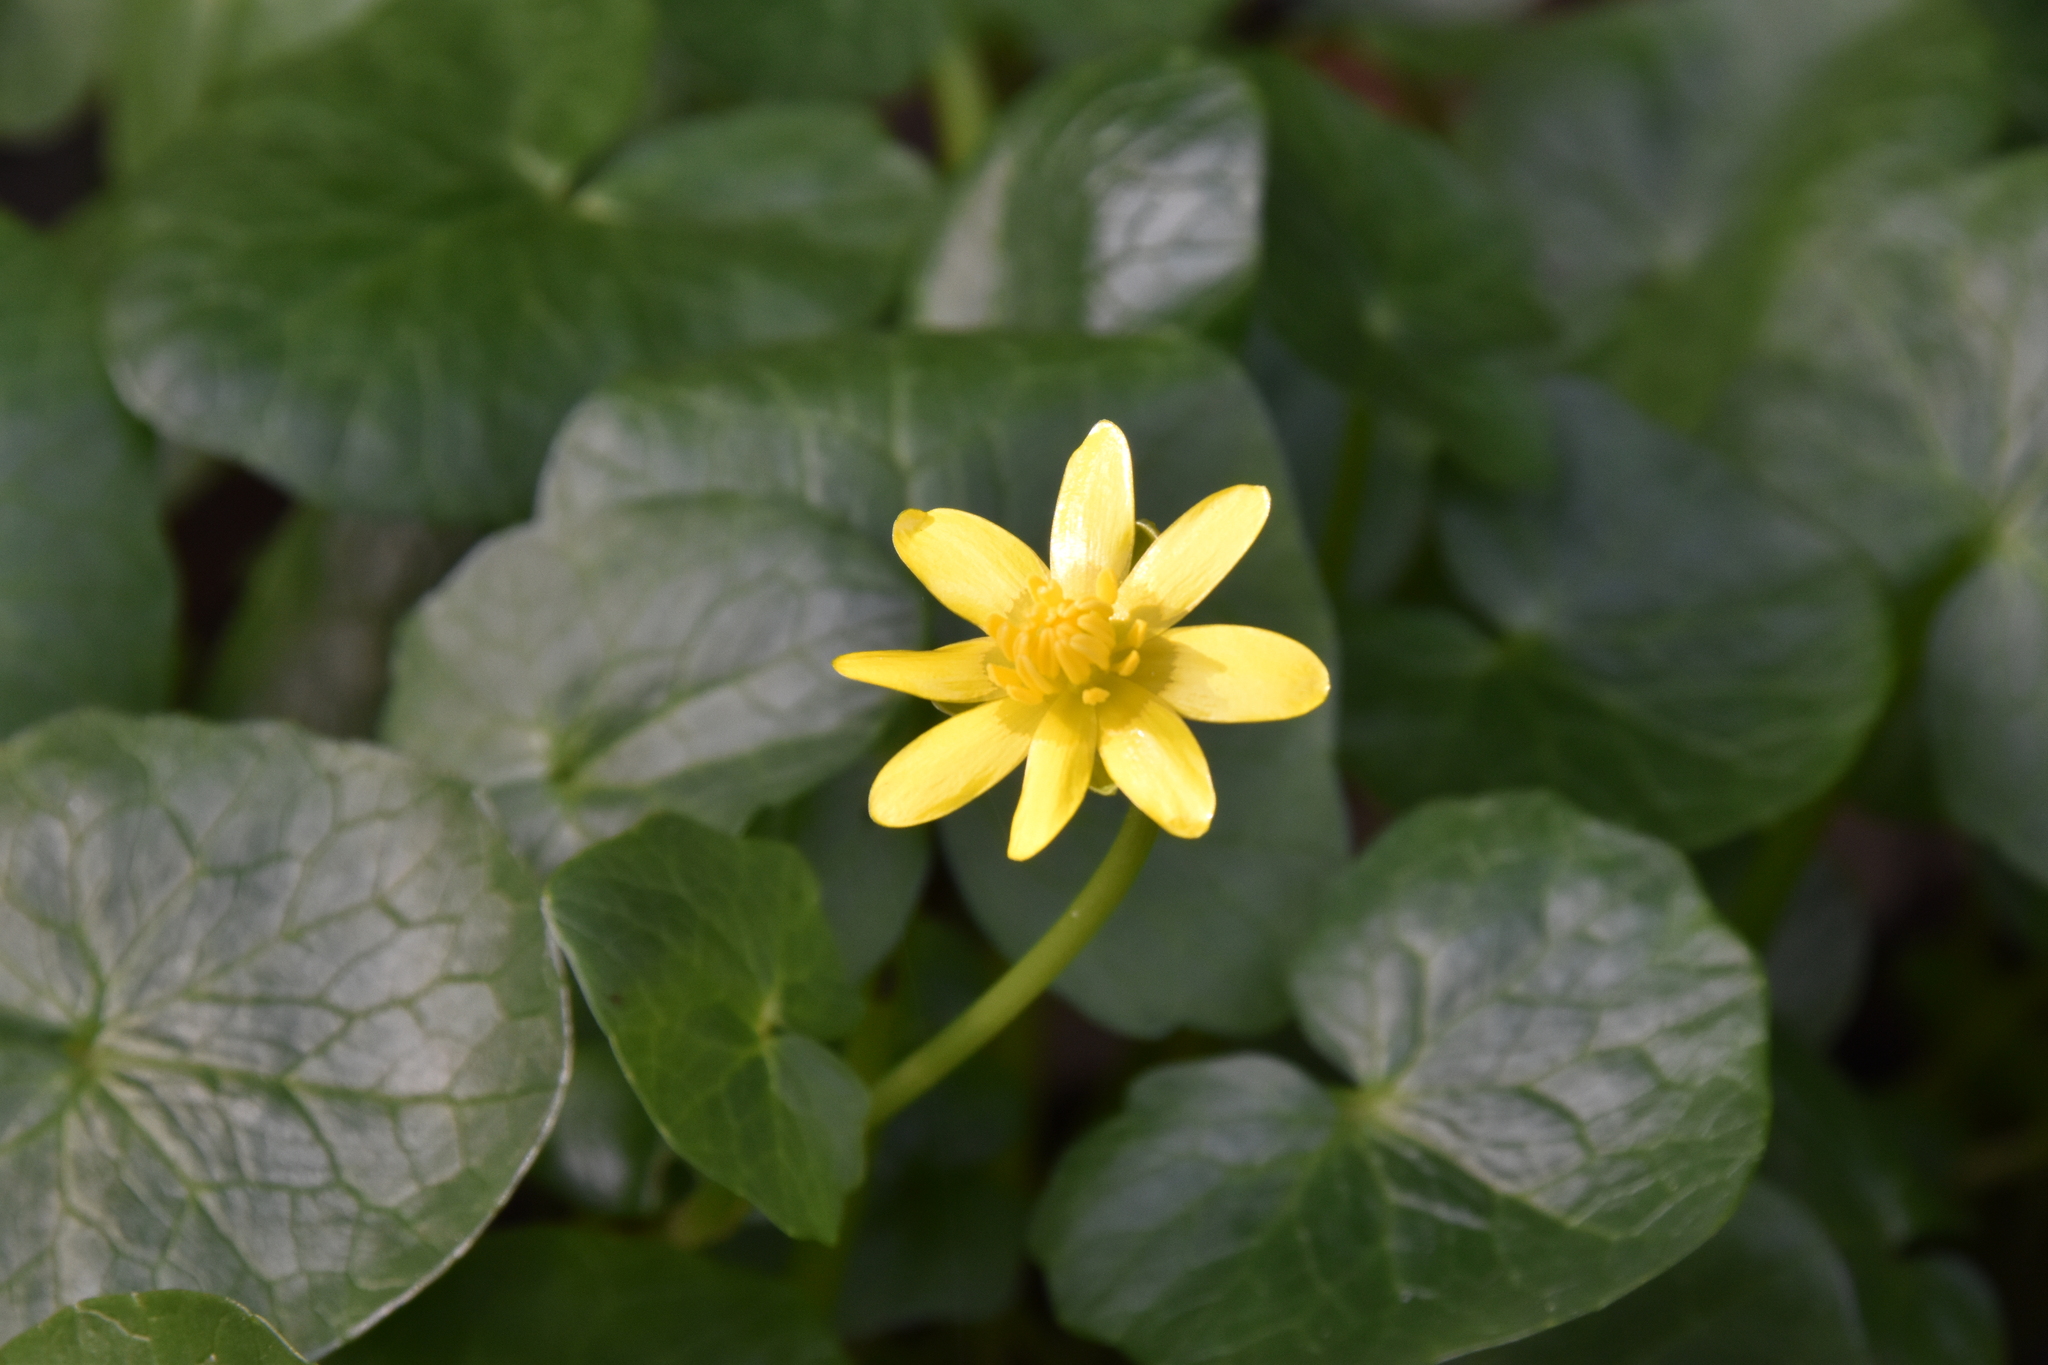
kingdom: Plantae
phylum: Tracheophyta
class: Magnoliopsida
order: Ranunculales
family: Ranunculaceae
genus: Ficaria
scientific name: Ficaria verna
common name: Lesser celandine
